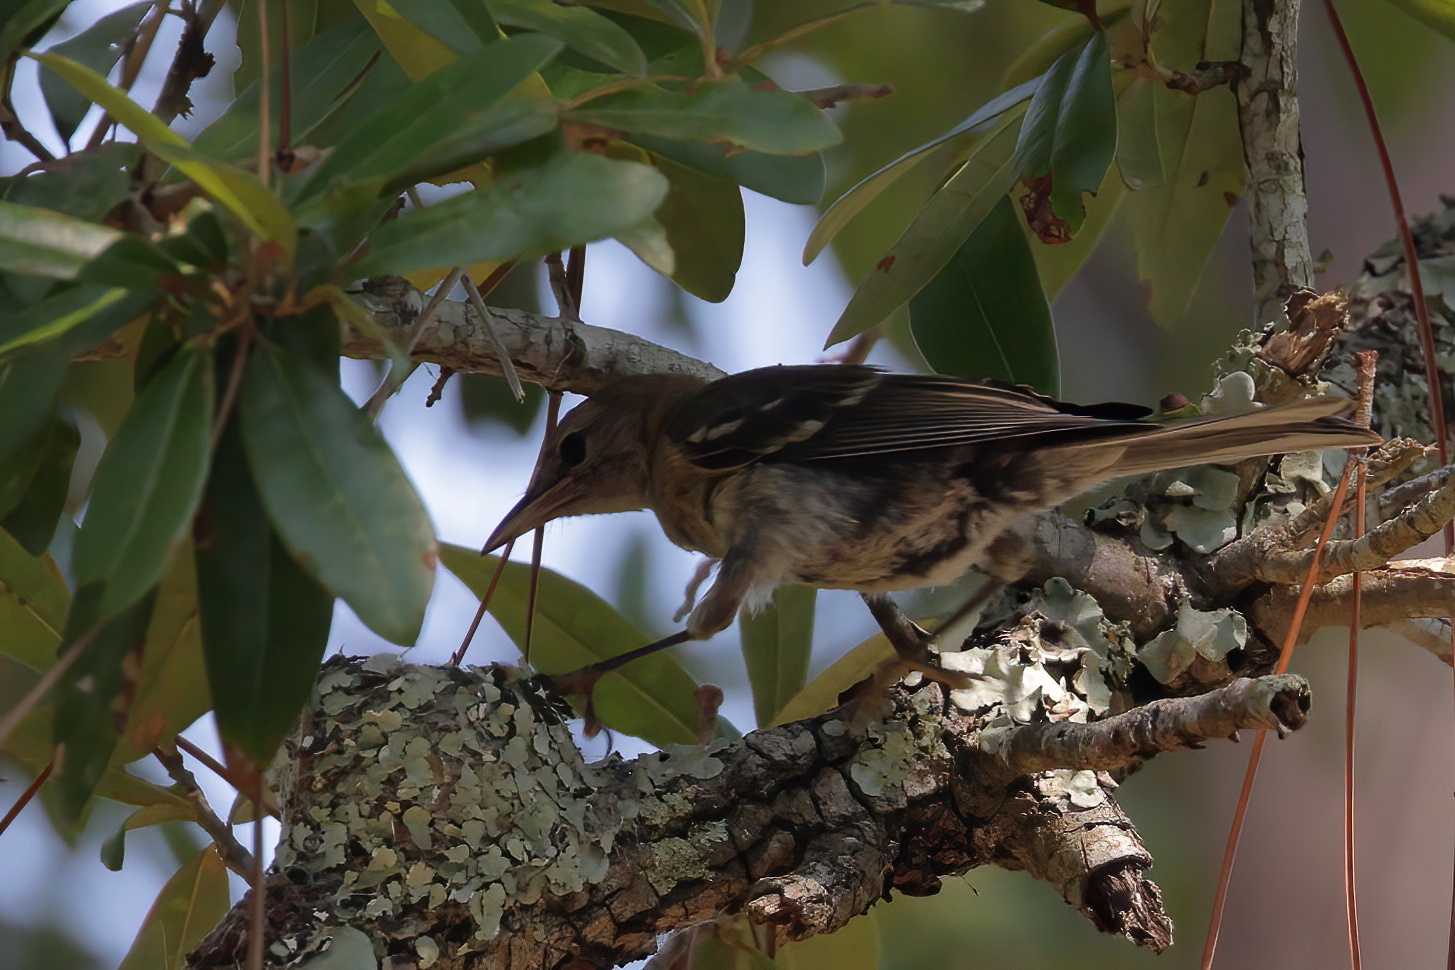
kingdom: Animalia
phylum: Chordata
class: Aves
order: Passeriformes
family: Parulidae
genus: Setophaga
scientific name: Setophaga pinus
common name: Pine warbler
